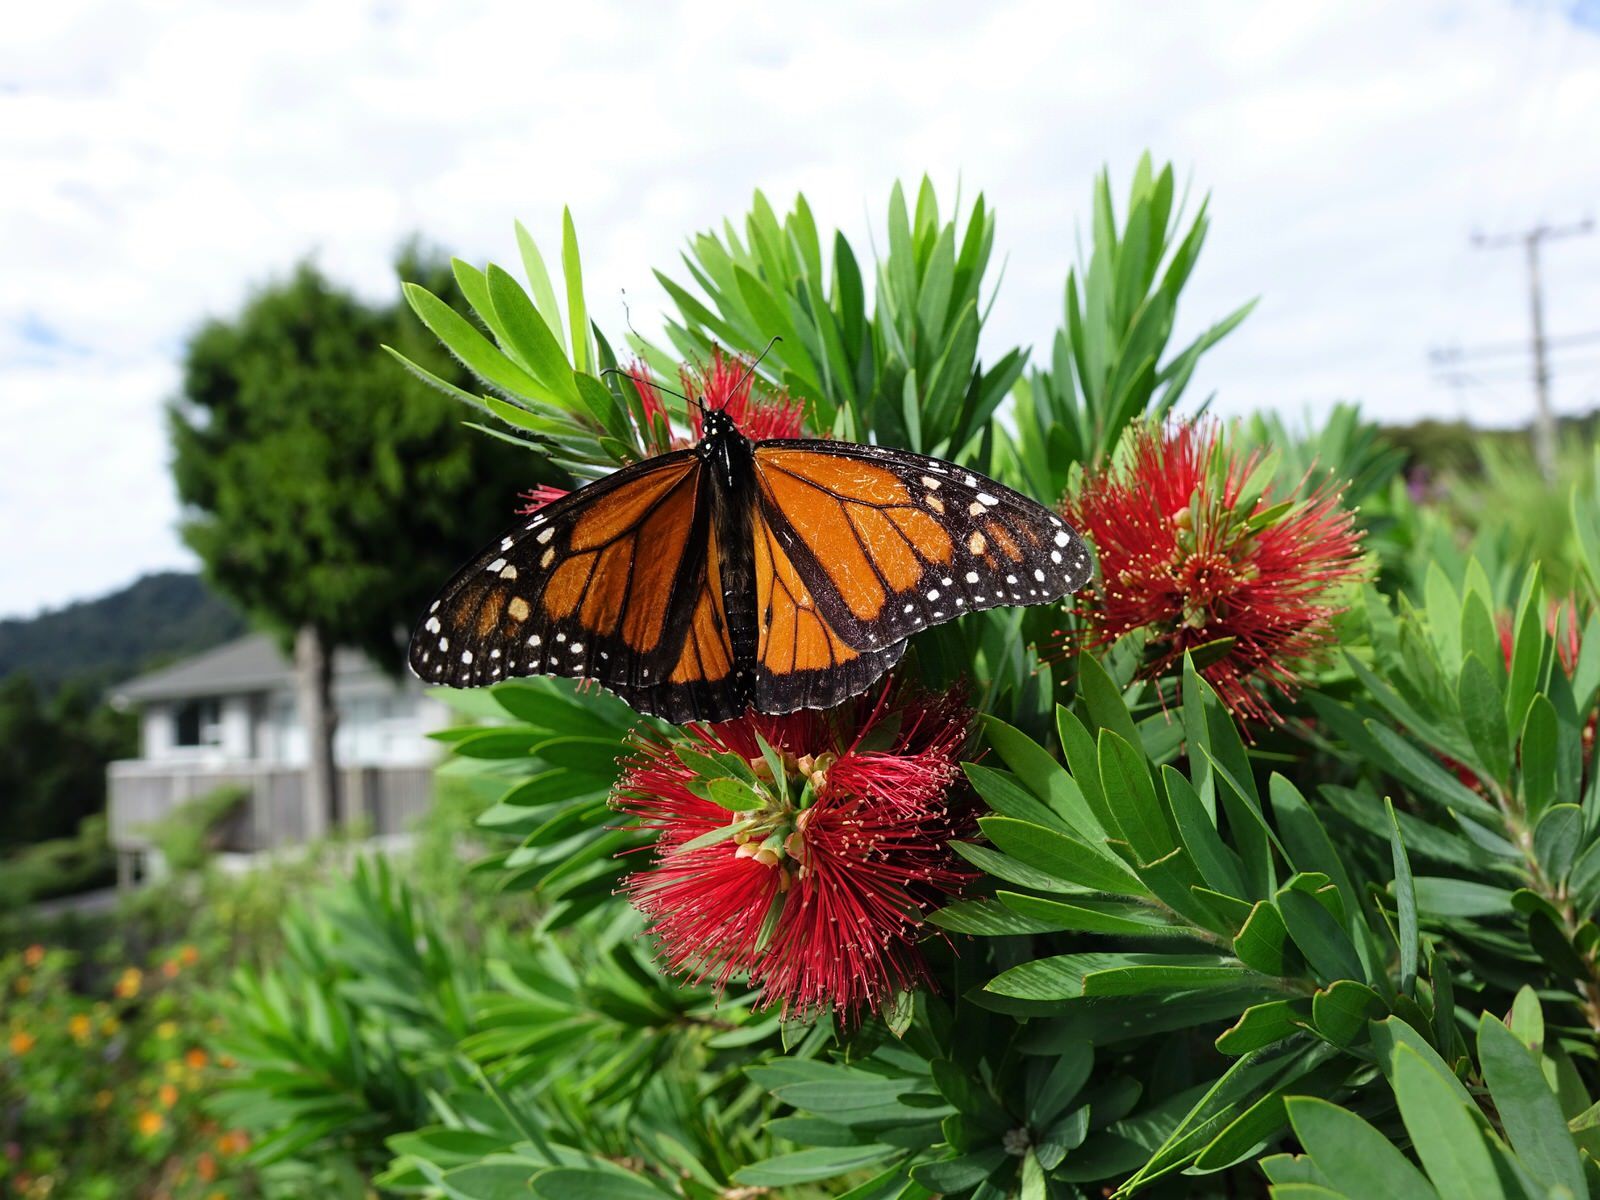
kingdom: Animalia
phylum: Arthropoda
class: Insecta
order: Lepidoptera
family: Nymphalidae
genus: Danaus
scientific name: Danaus plexippus
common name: Monarch
